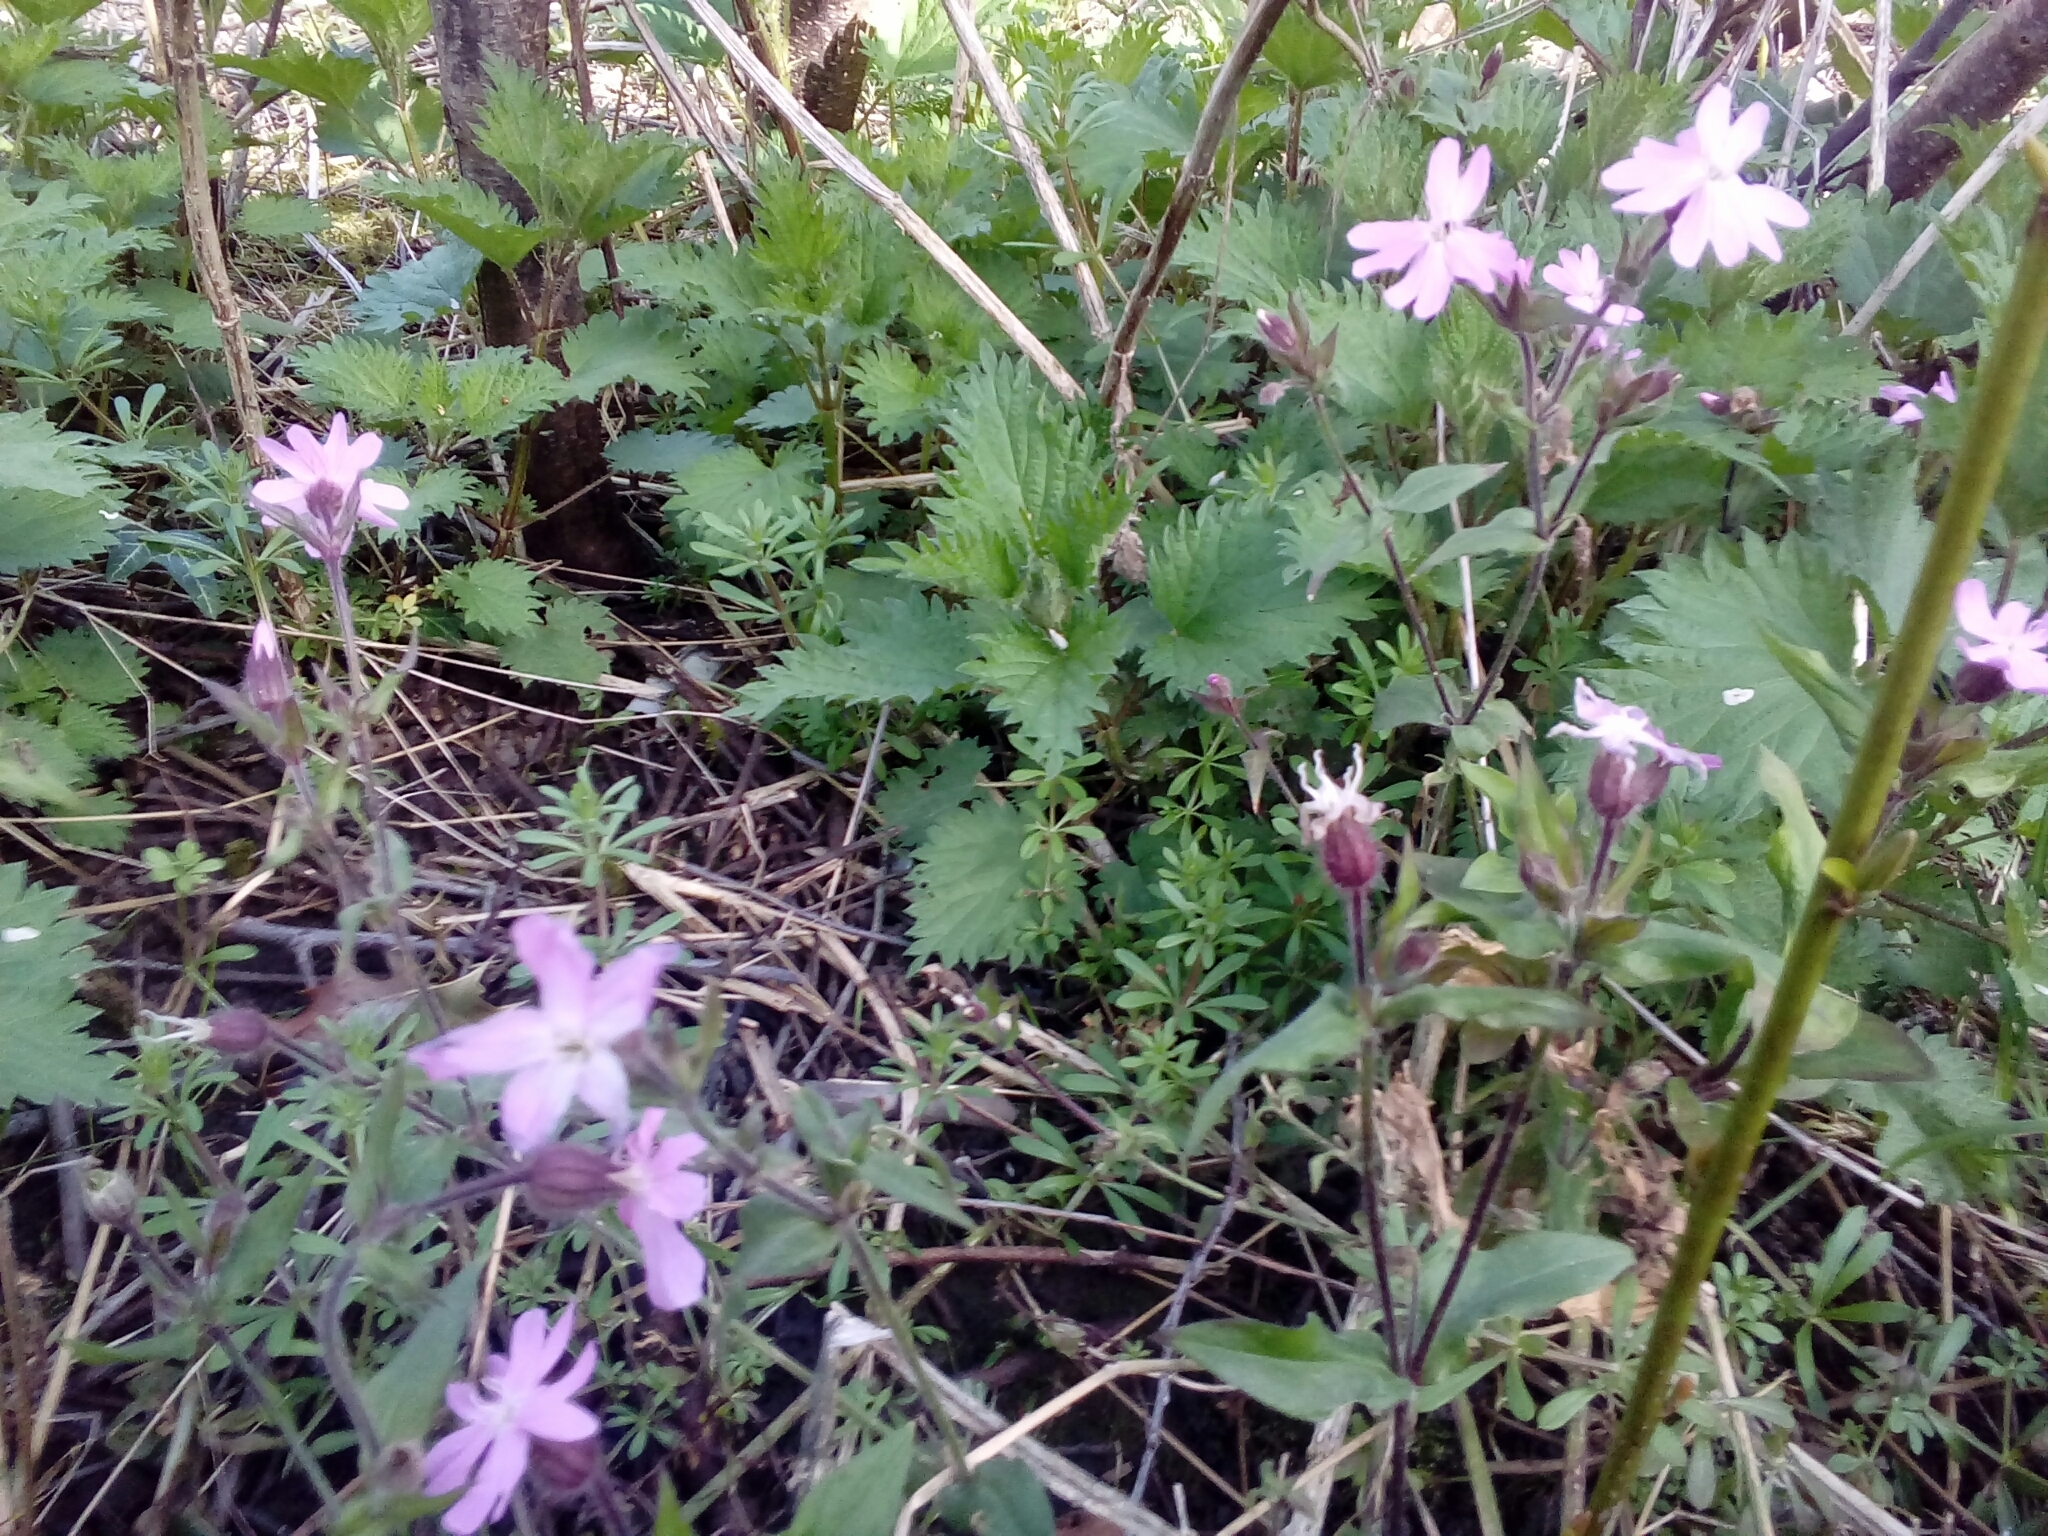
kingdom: Plantae
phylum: Tracheophyta
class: Magnoliopsida
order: Caryophyllales
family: Caryophyllaceae
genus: Silene
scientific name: Silene dioica
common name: Red campion
